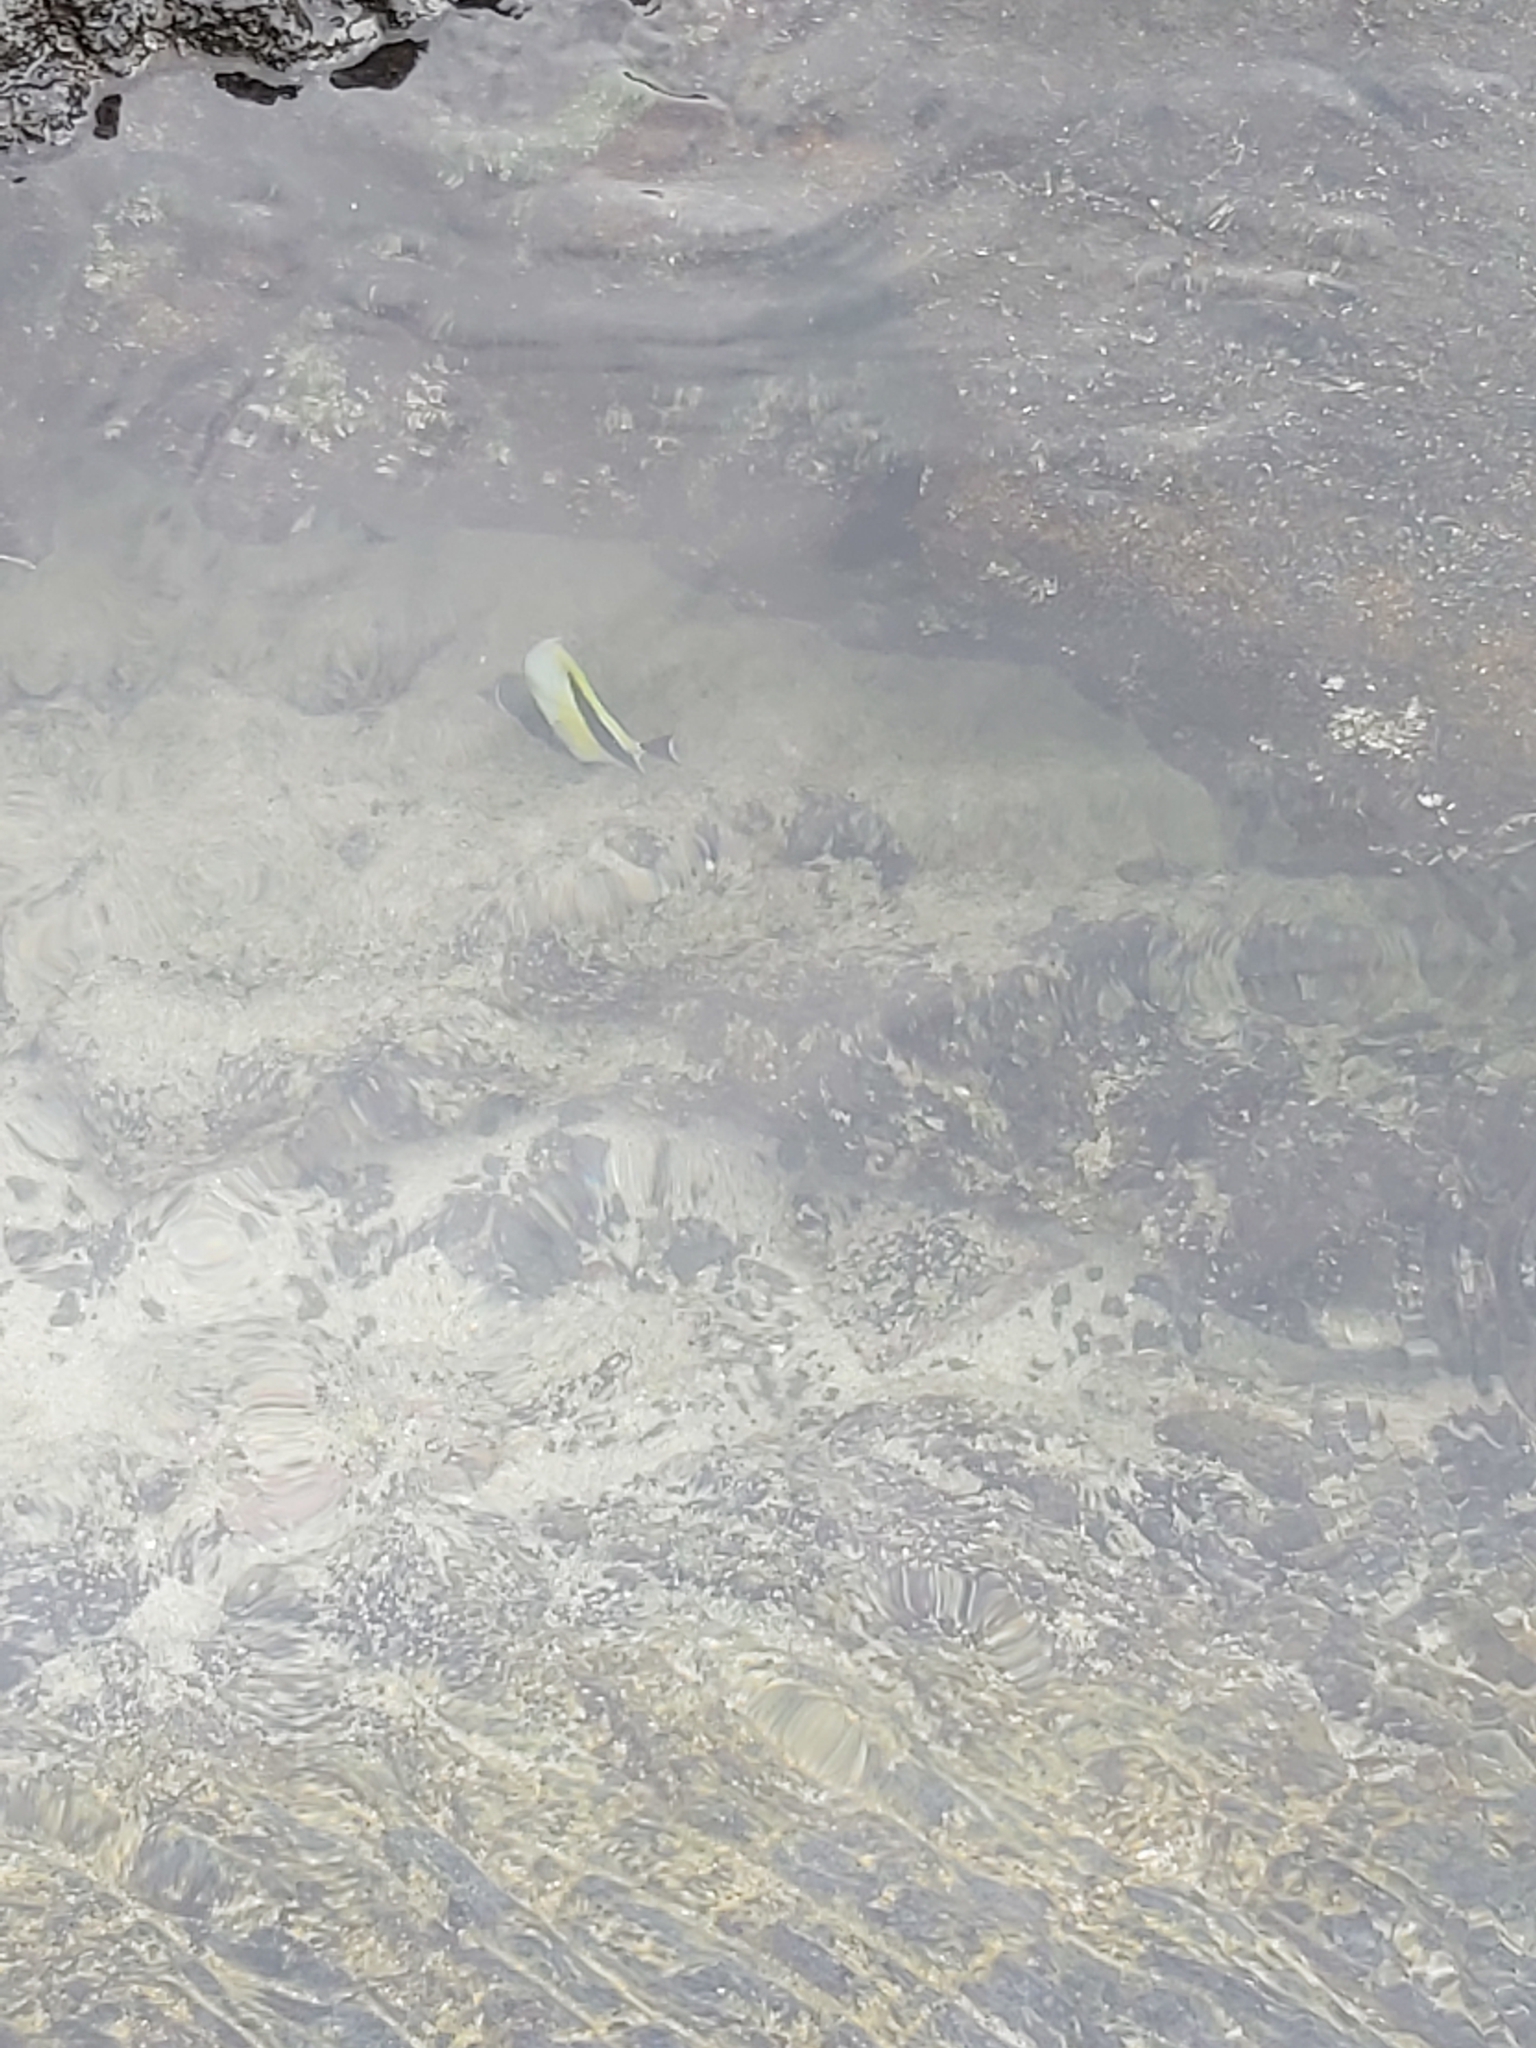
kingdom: Animalia
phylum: Chordata
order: Perciformes
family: Zanclidae
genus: Zanclus
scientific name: Zanclus cornutus
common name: Moorish idol
